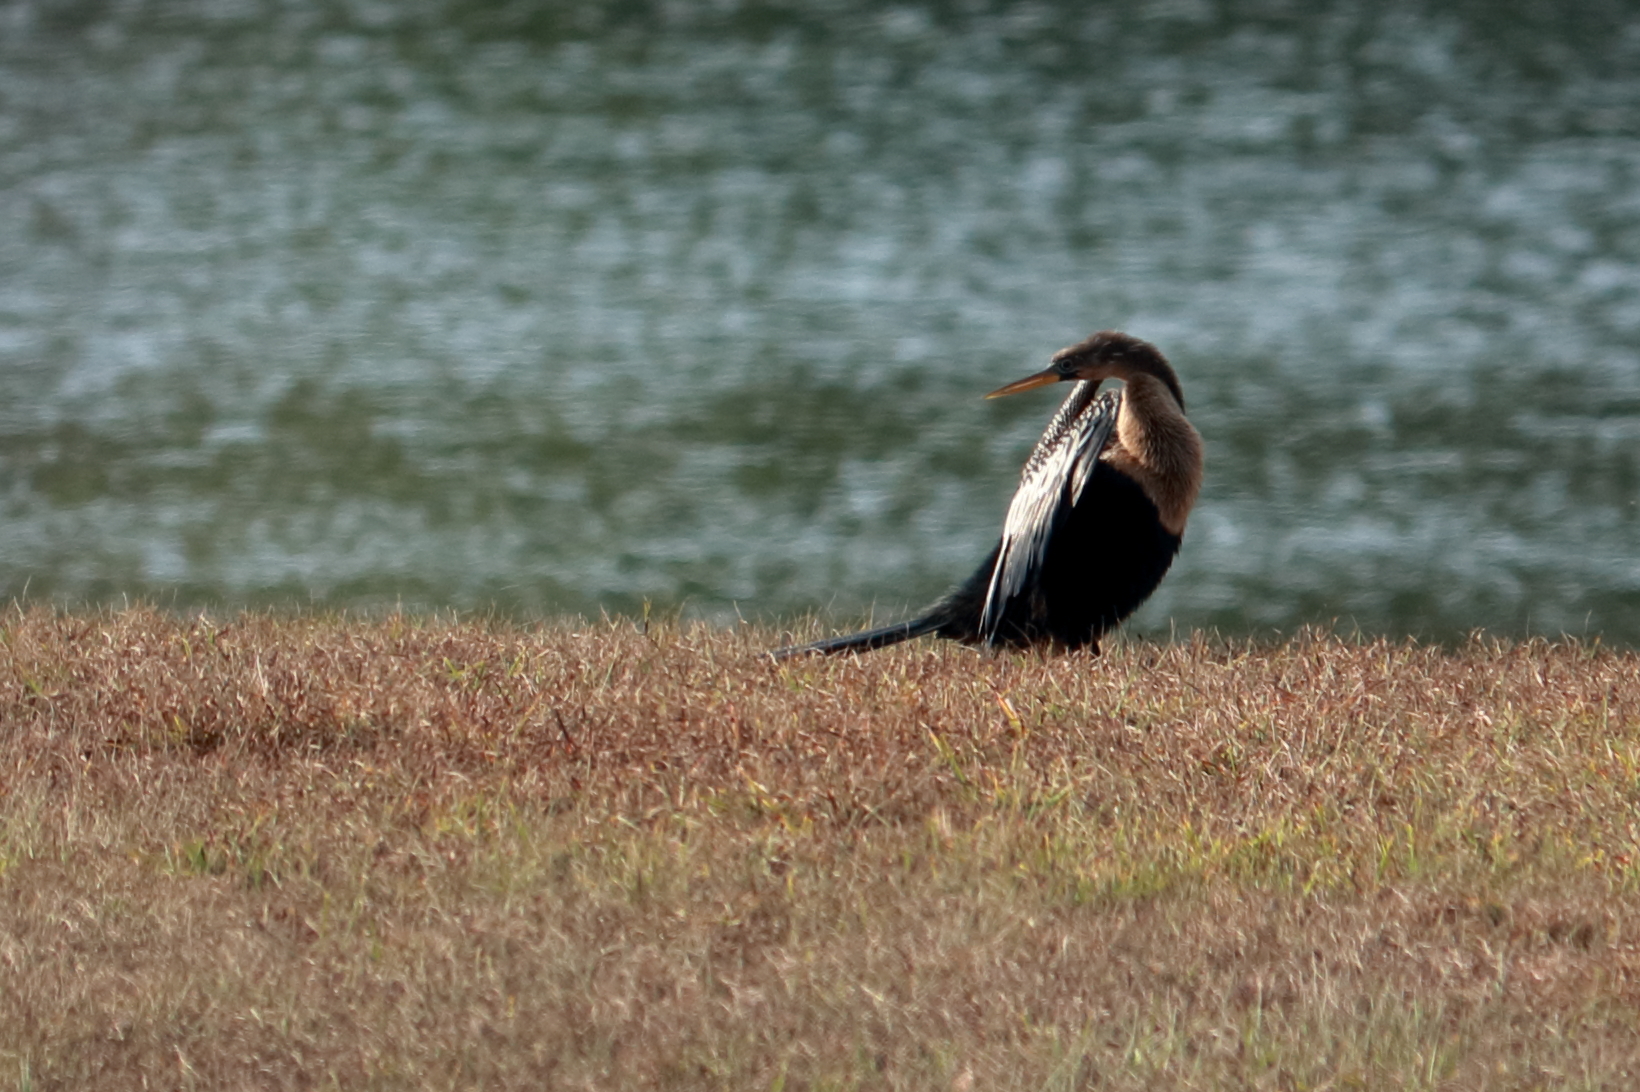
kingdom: Animalia
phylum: Chordata
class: Aves
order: Suliformes
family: Anhingidae
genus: Anhinga
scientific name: Anhinga anhinga
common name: Anhinga
